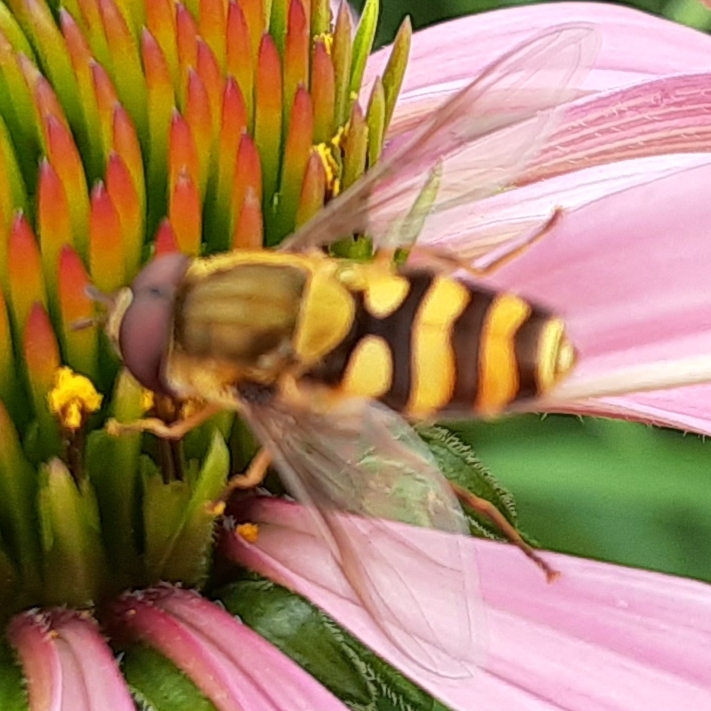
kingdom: Animalia
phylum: Arthropoda
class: Insecta
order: Diptera
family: Syrphidae
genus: Syrphus
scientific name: Syrphus
